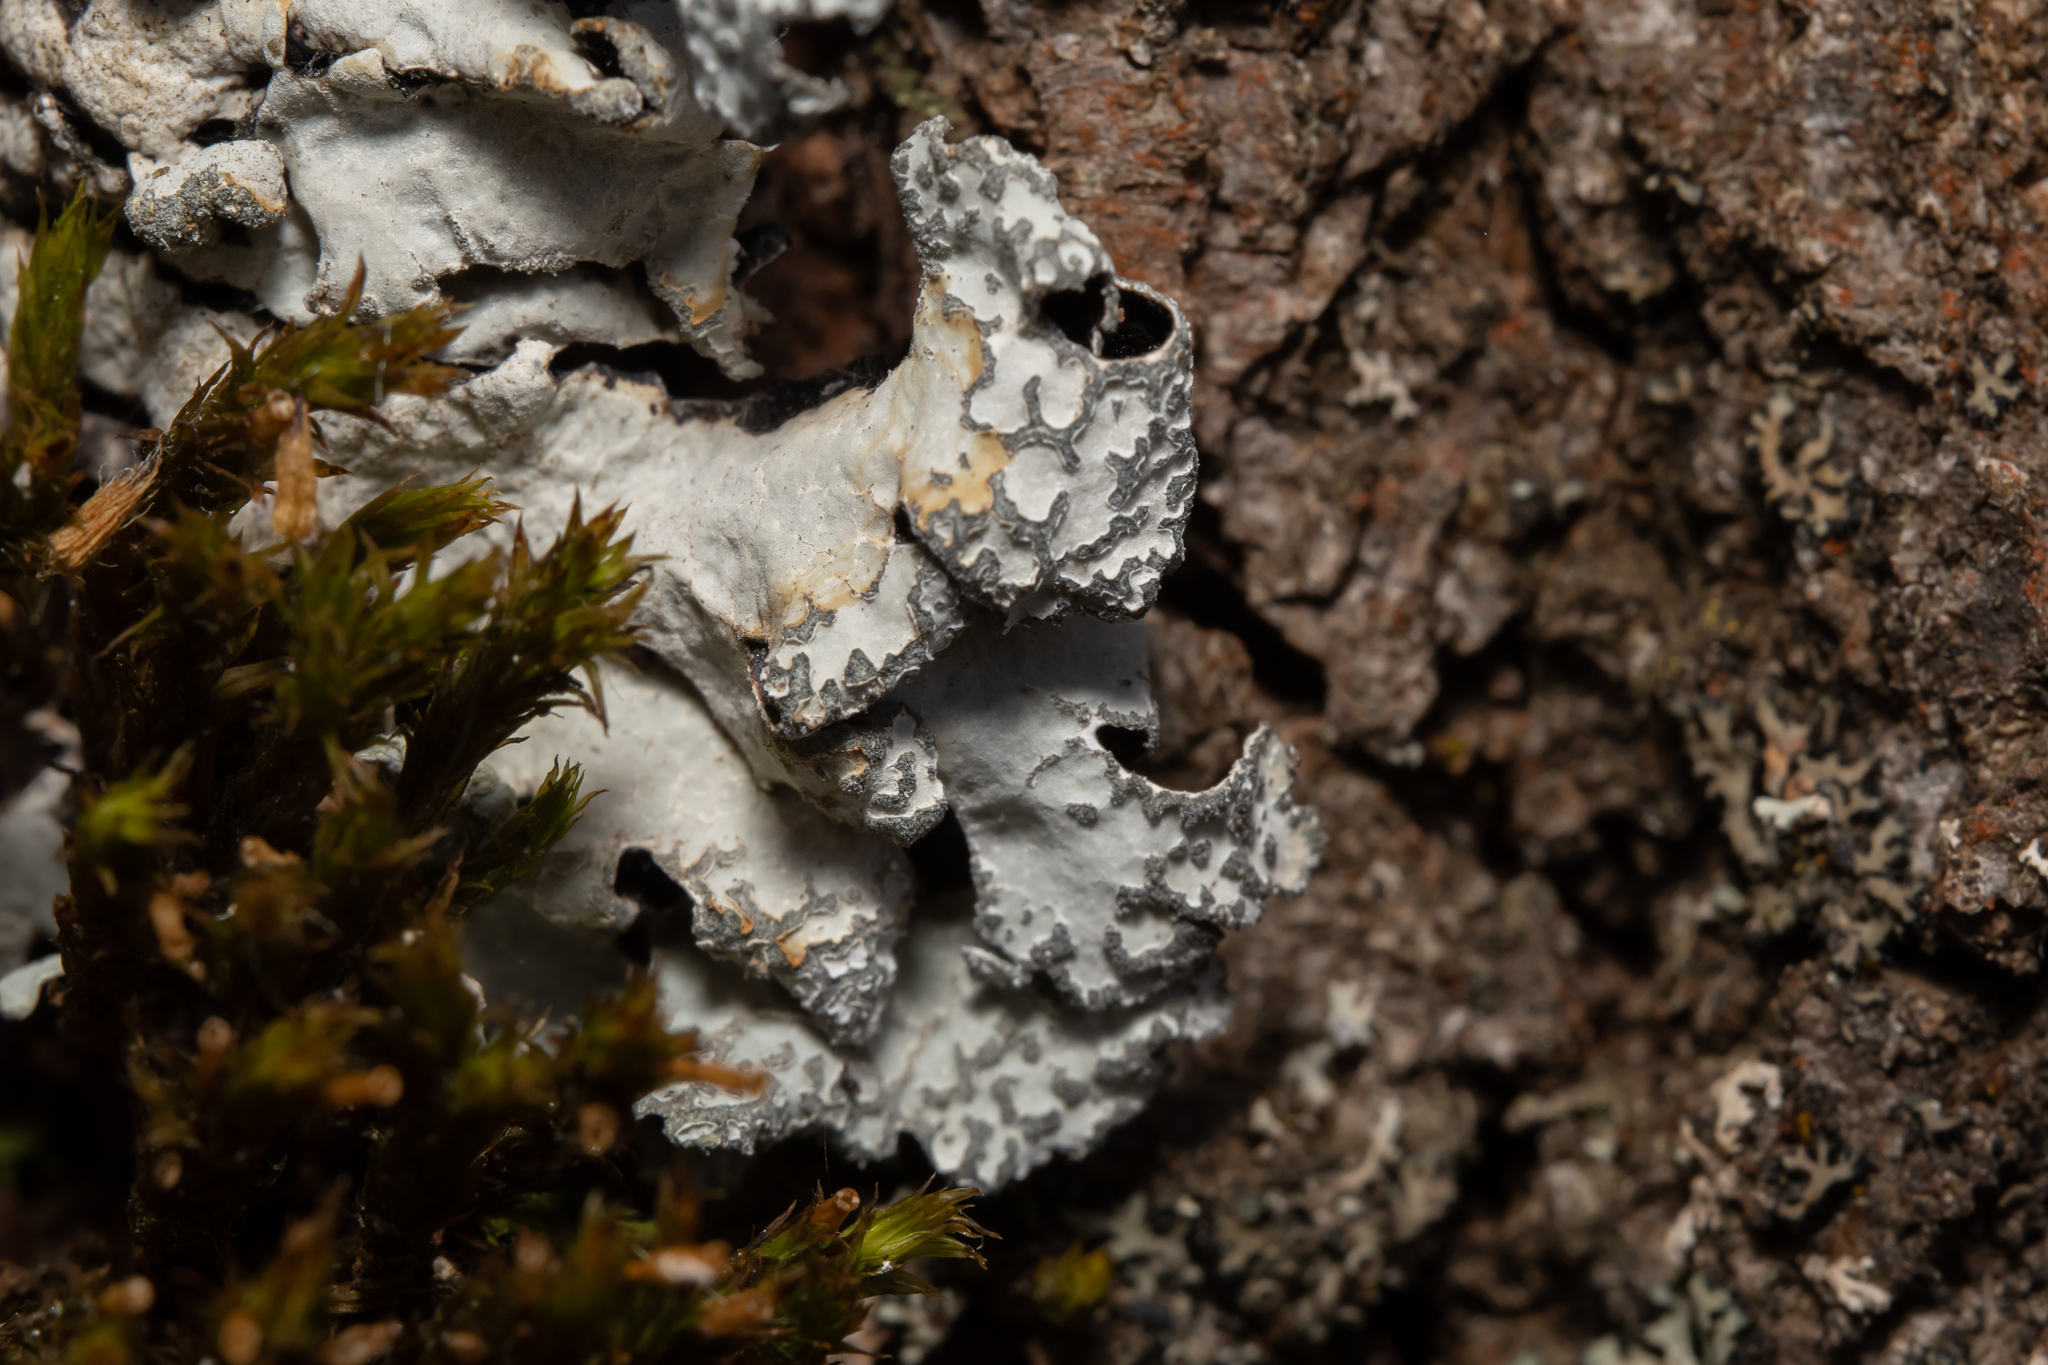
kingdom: Fungi
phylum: Ascomycota
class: Lecanoromycetes
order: Lecanorales
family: Parmeliaceae
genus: Parmelia
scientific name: Parmelia sulcata
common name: Netted shield lichen
